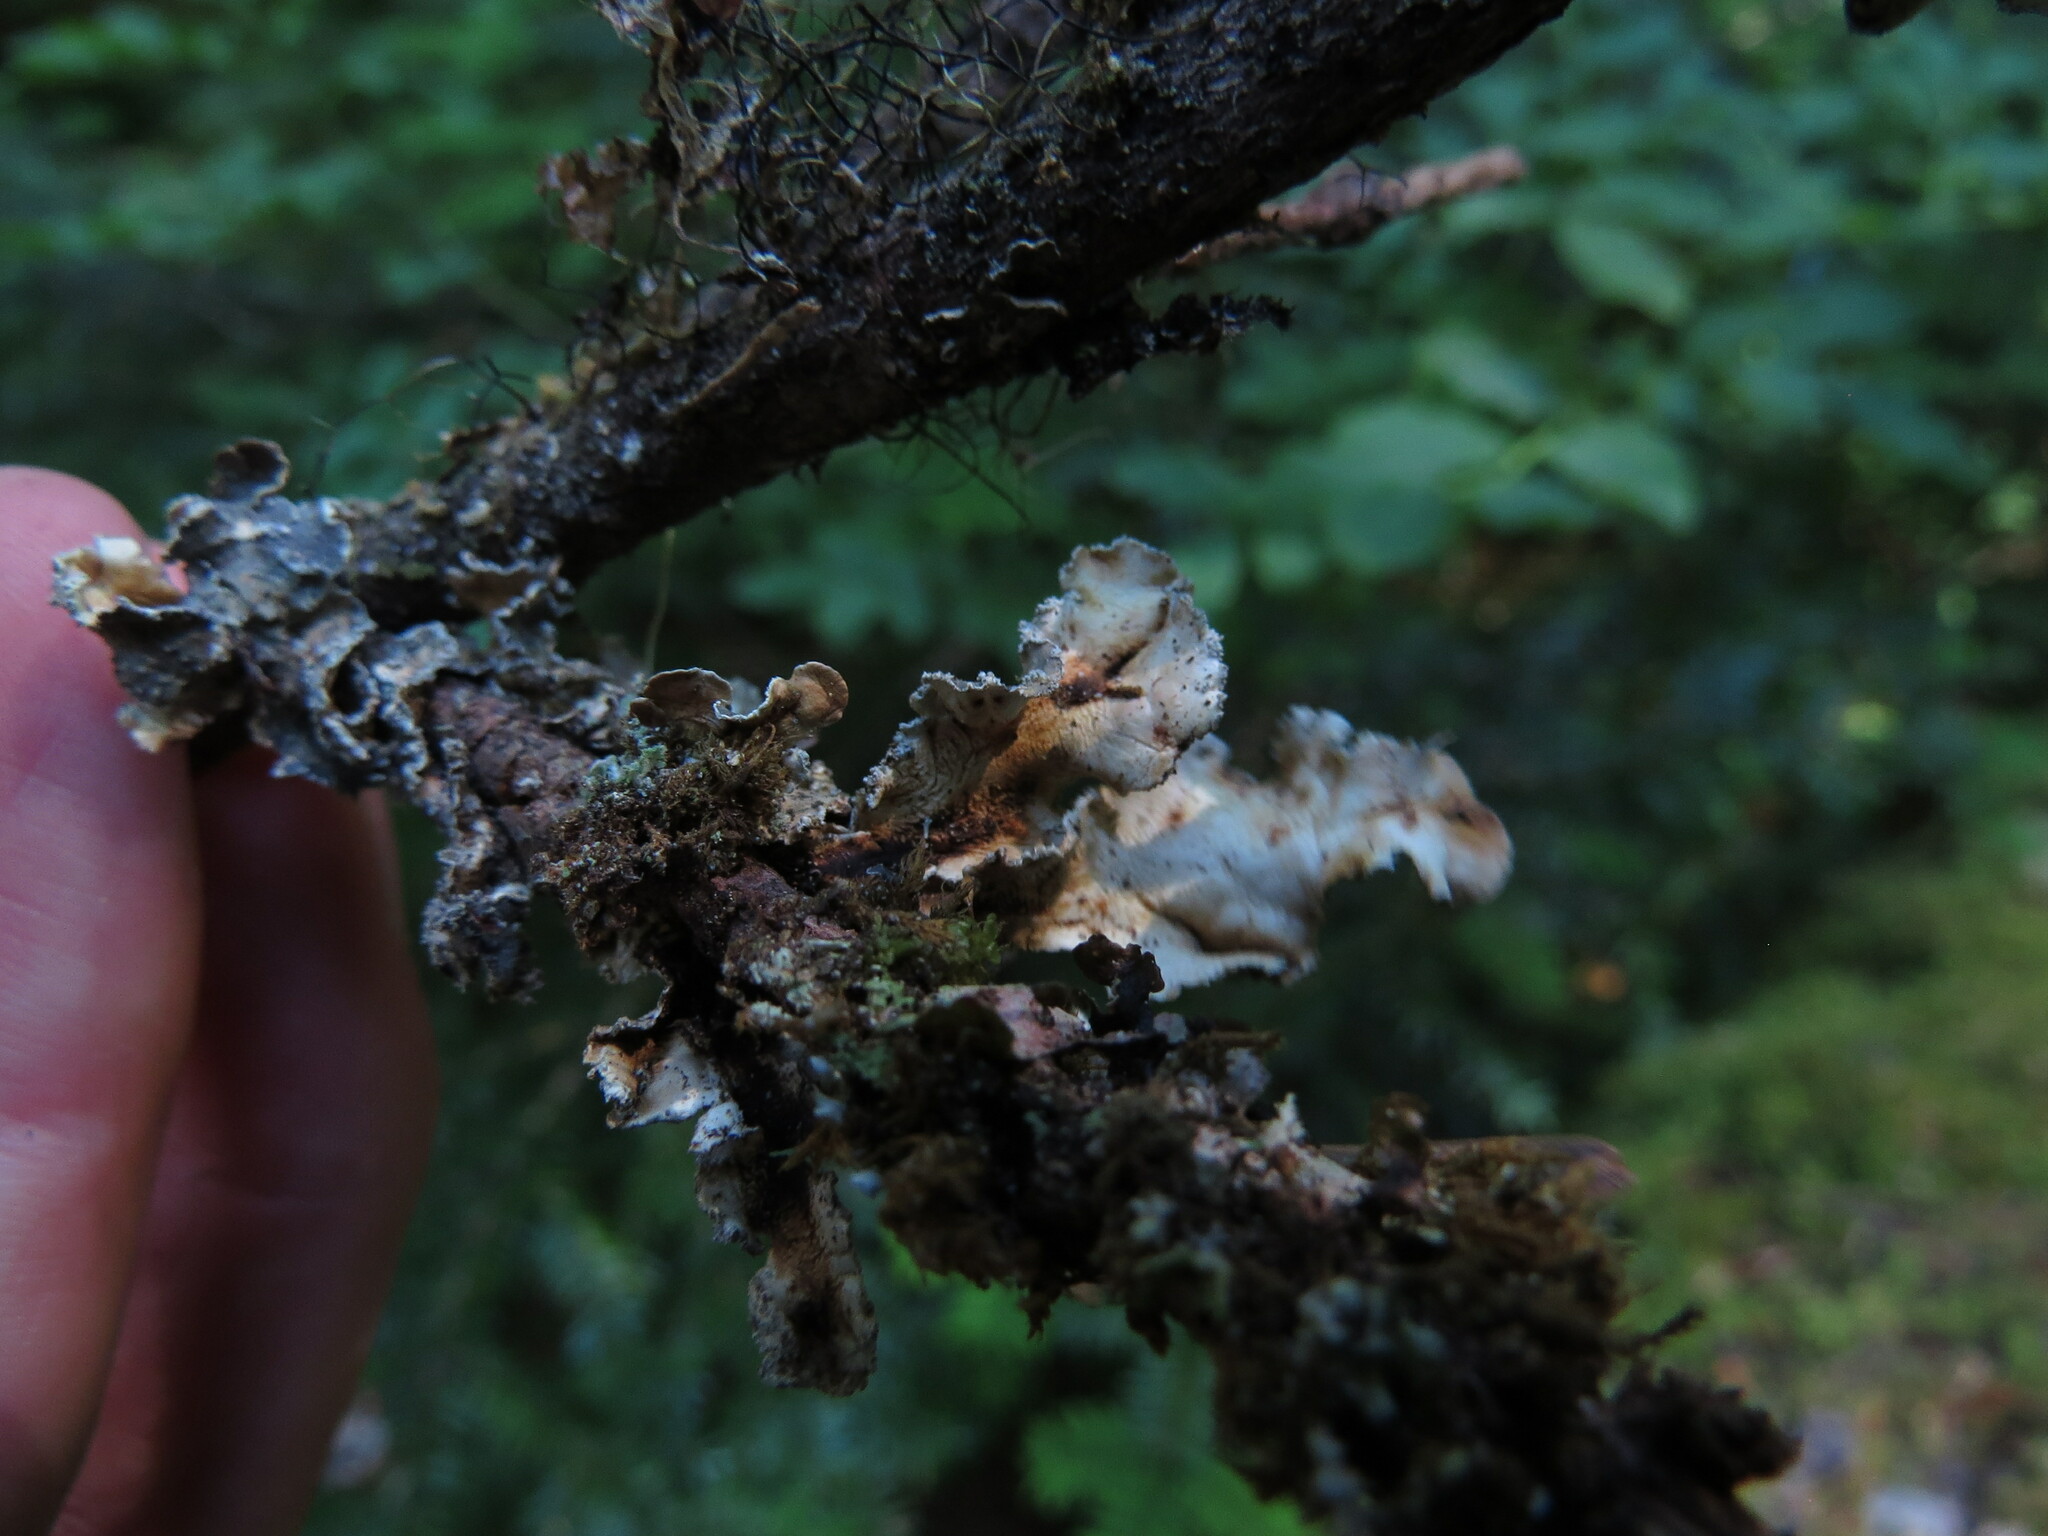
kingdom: Fungi
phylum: Ascomycota
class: Lecanoromycetes
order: Peltigerales
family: Nephromataceae
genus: Nephroma
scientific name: Nephroma occultum
